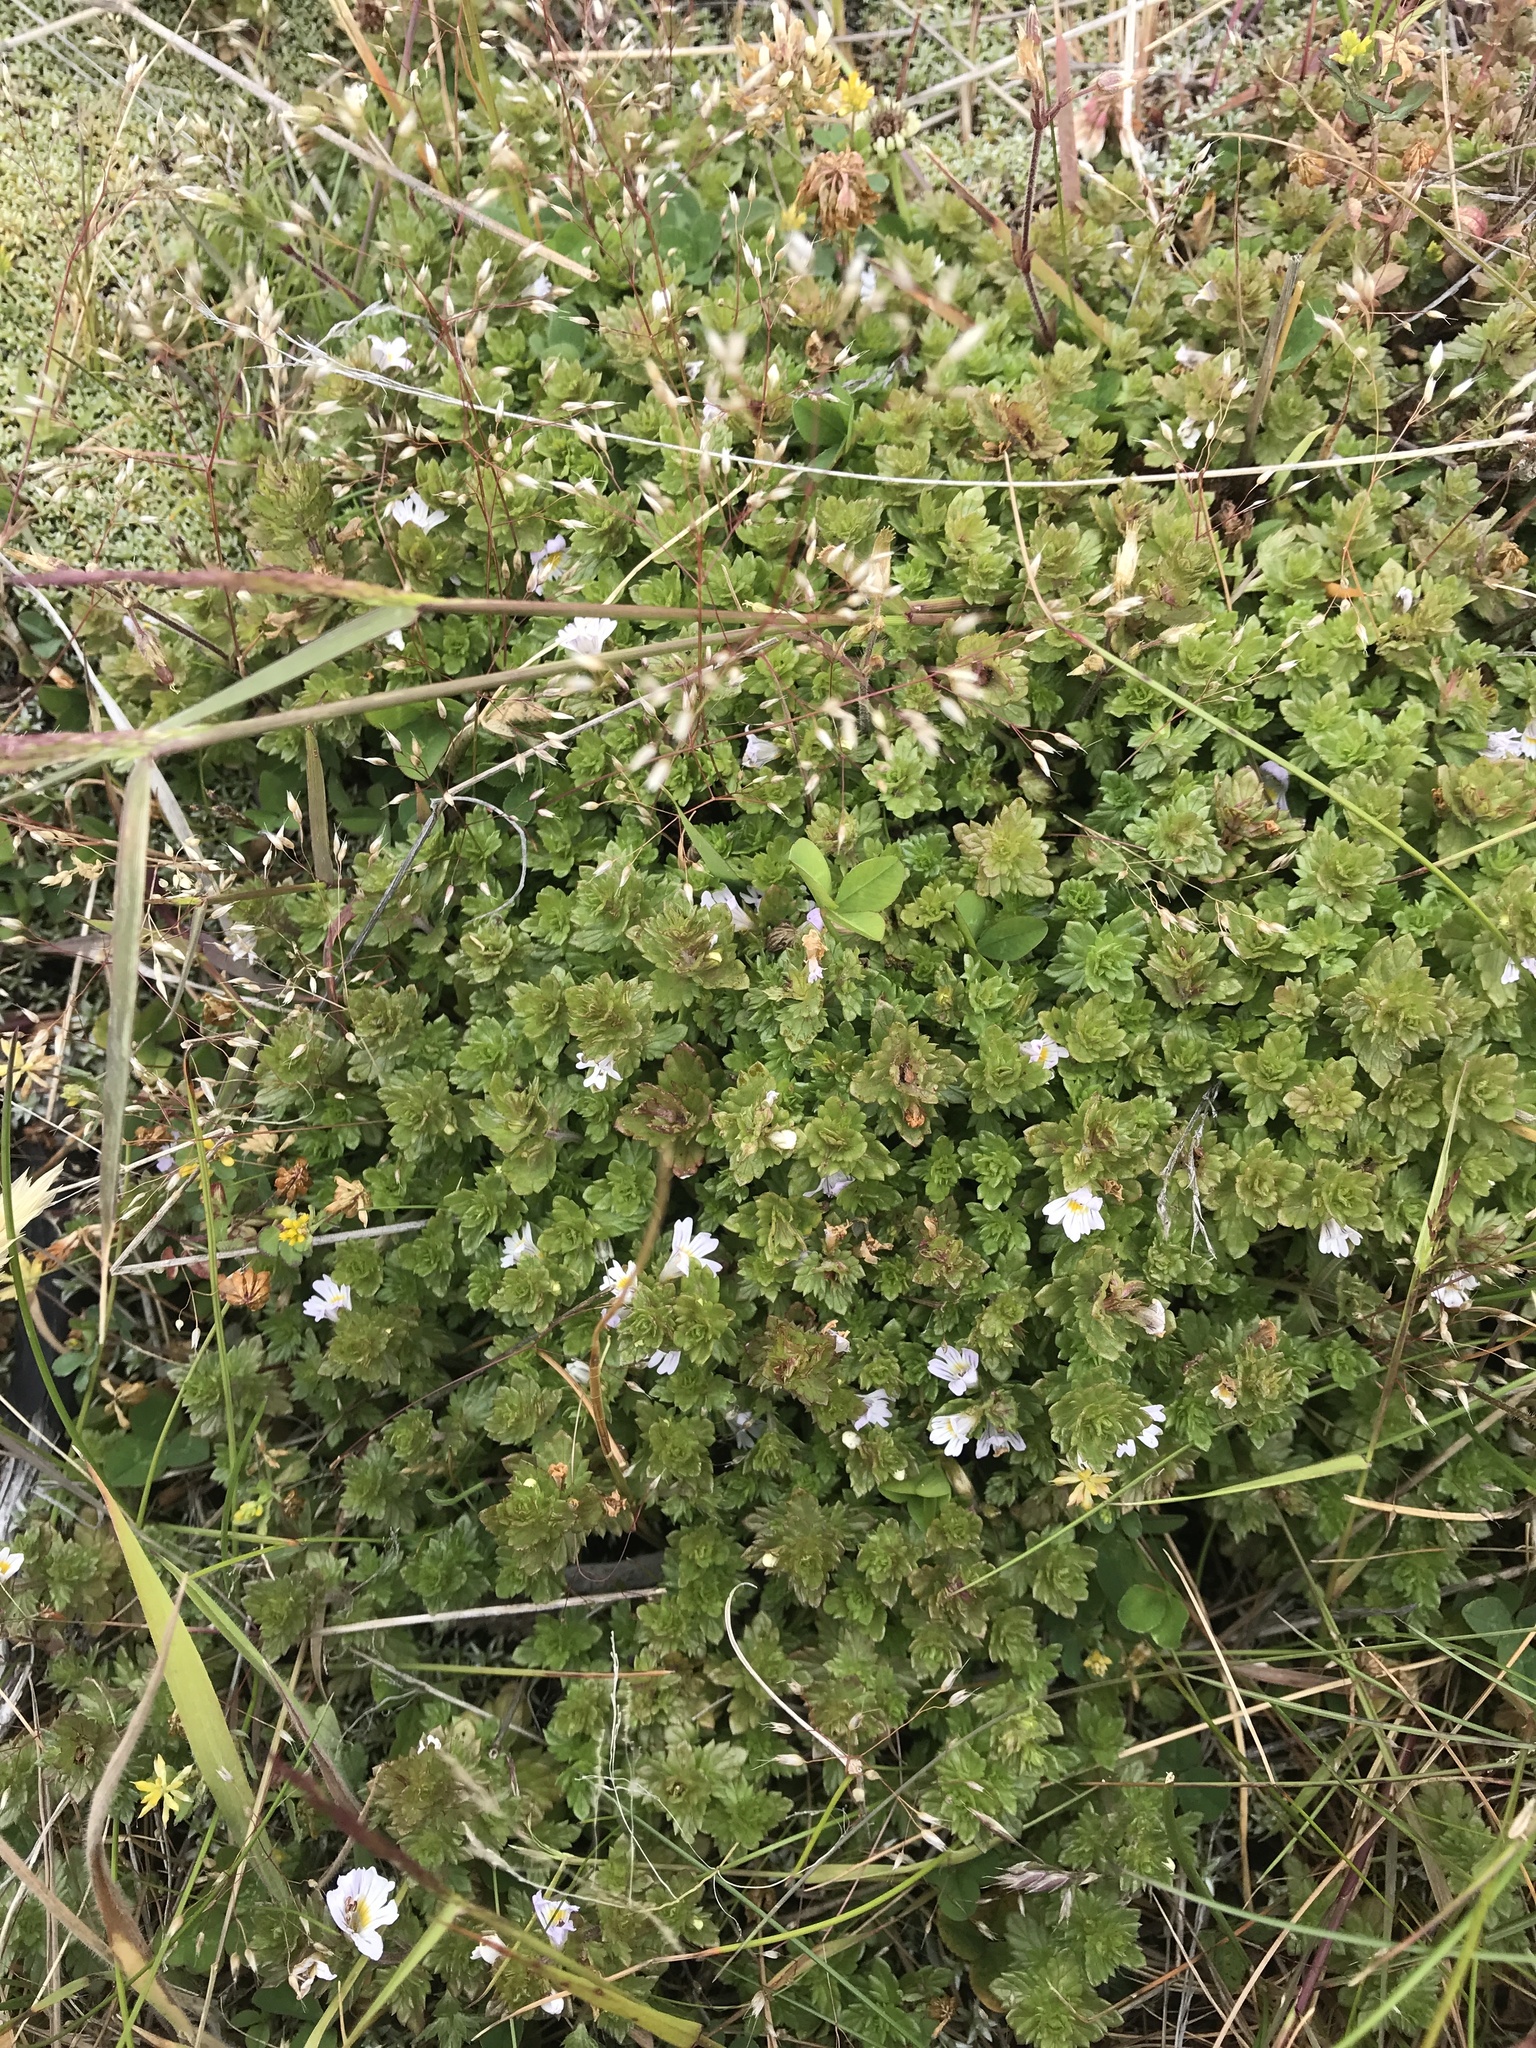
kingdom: Plantae
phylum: Tracheophyta
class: Magnoliopsida
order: Lamiales
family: Orobanchaceae
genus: Euphrasia
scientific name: Euphrasia nemorosa
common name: Common eyebright
